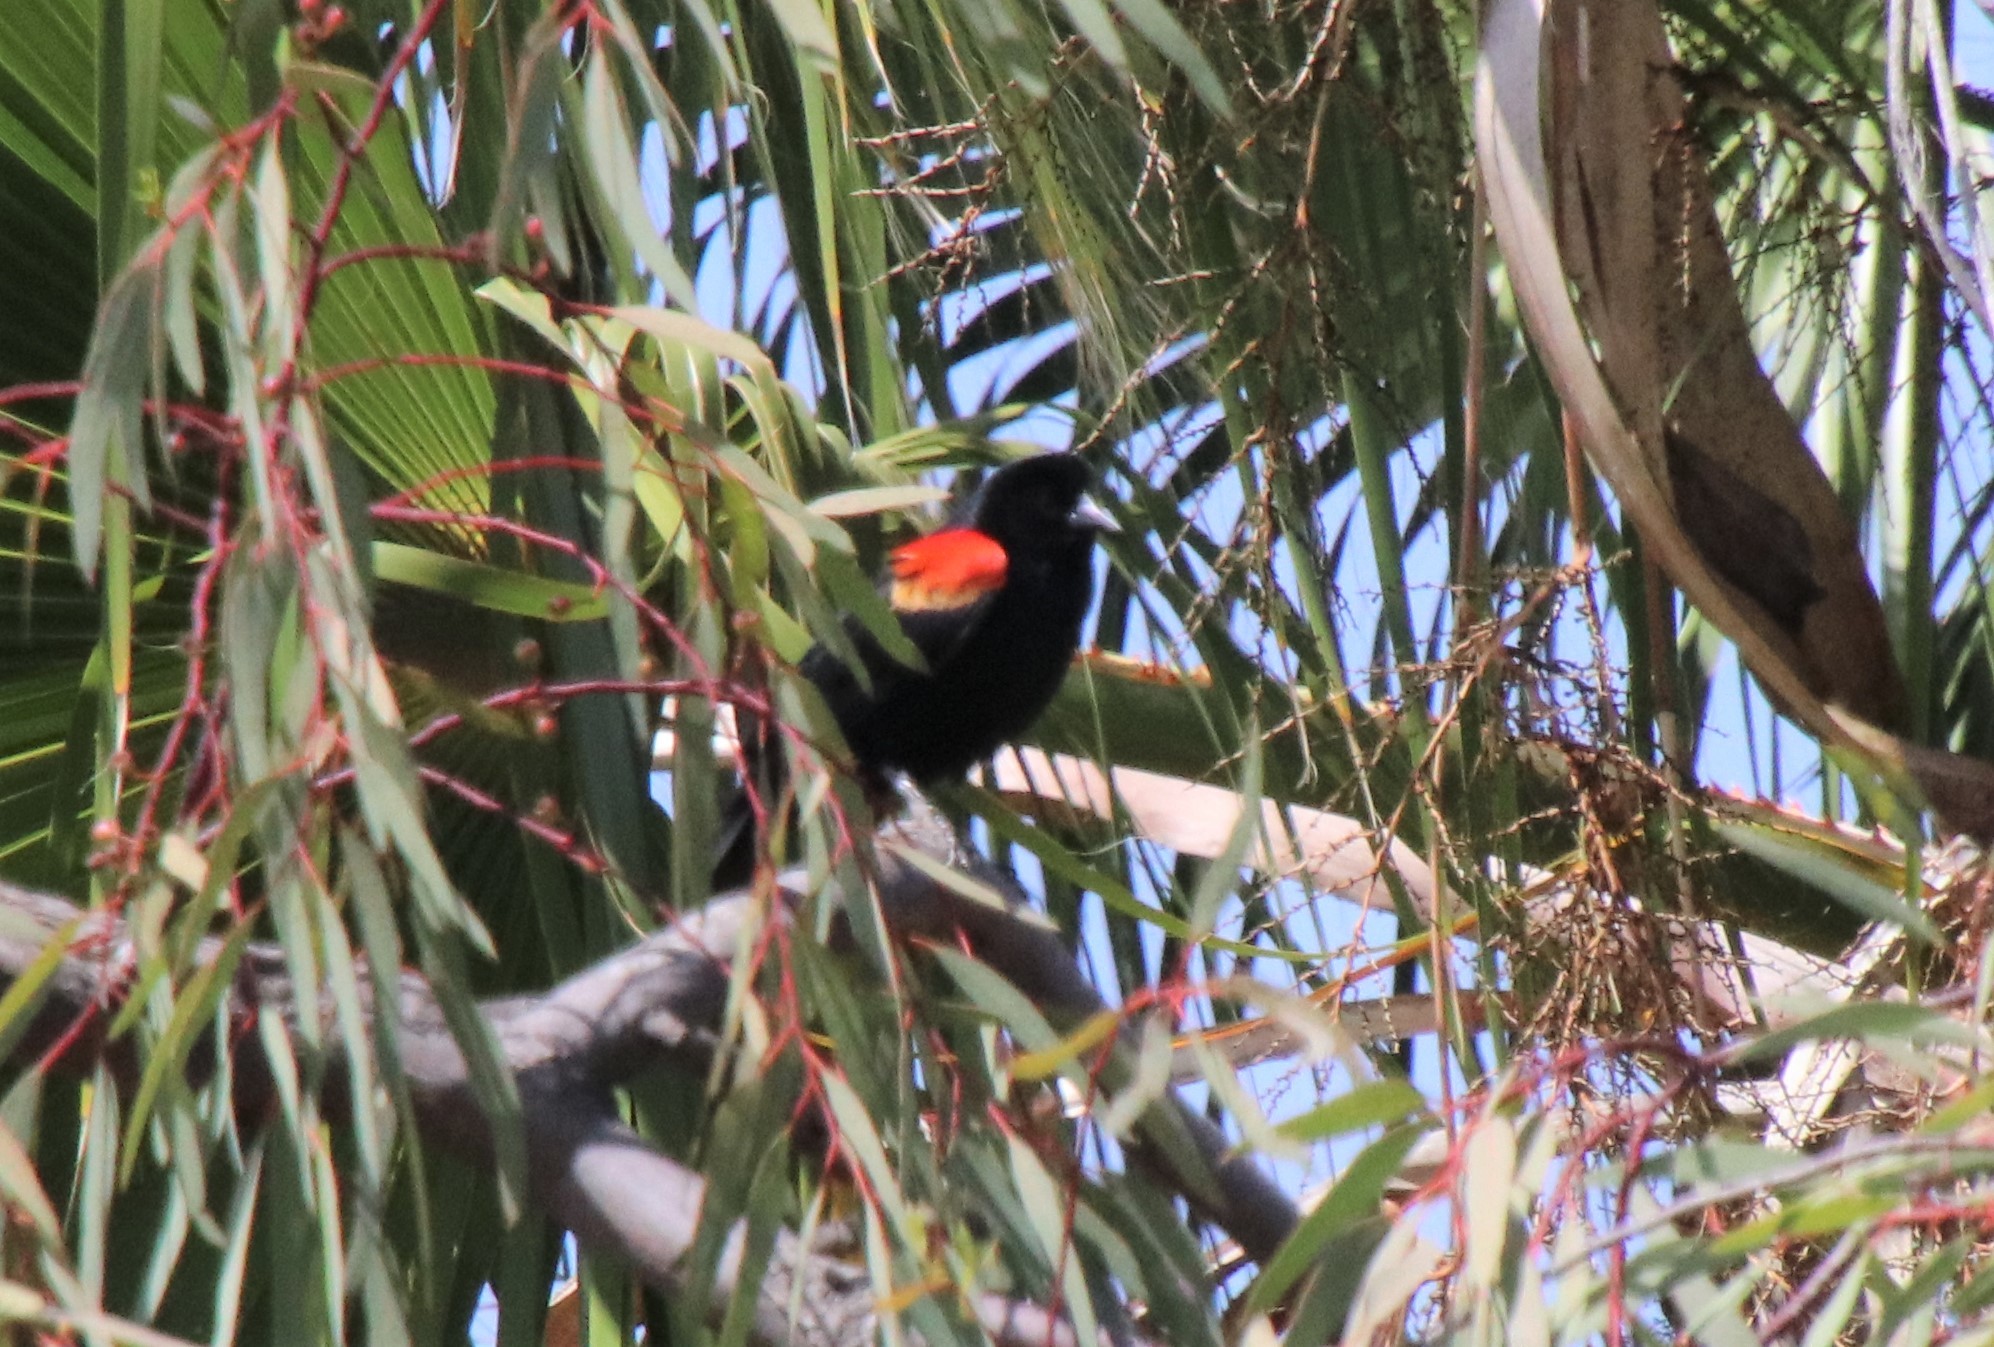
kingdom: Animalia
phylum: Chordata
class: Aves
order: Passeriformes
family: Icteridae
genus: Agelaius
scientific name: Agelaius phoeniceus
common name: Red-winged blackbird
